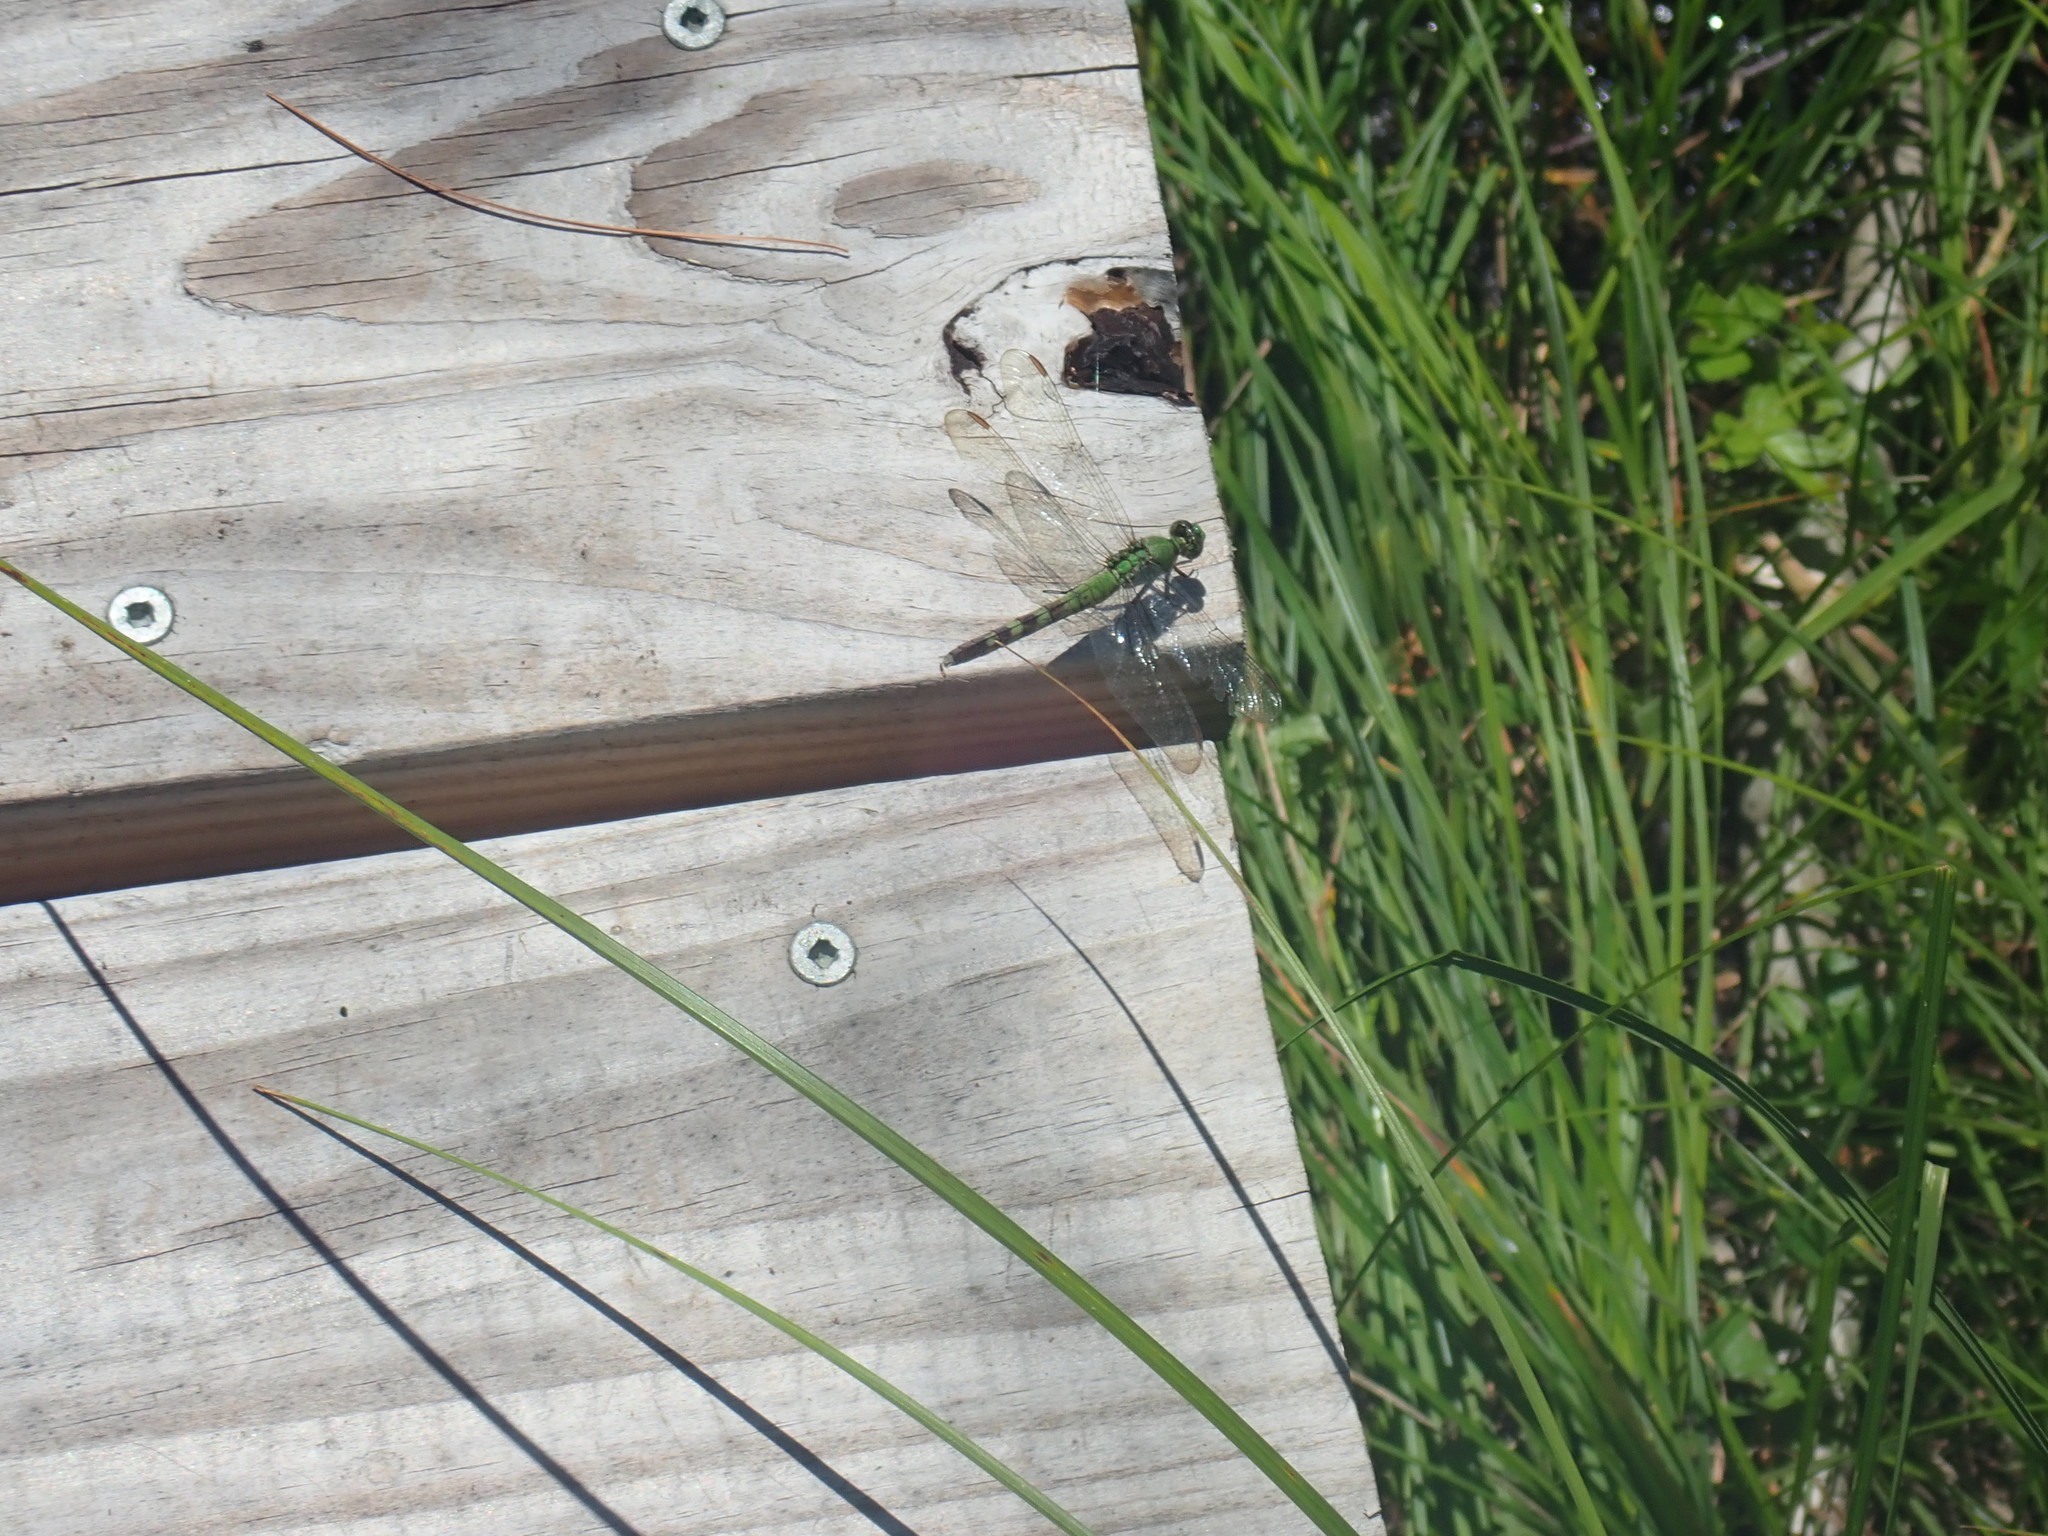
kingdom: Animalia
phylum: Arthropoda
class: Insecta
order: Odonata
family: Libellulidae
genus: Erythemis
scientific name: Erythemis simplicicollis
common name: Eastern pondhawk
